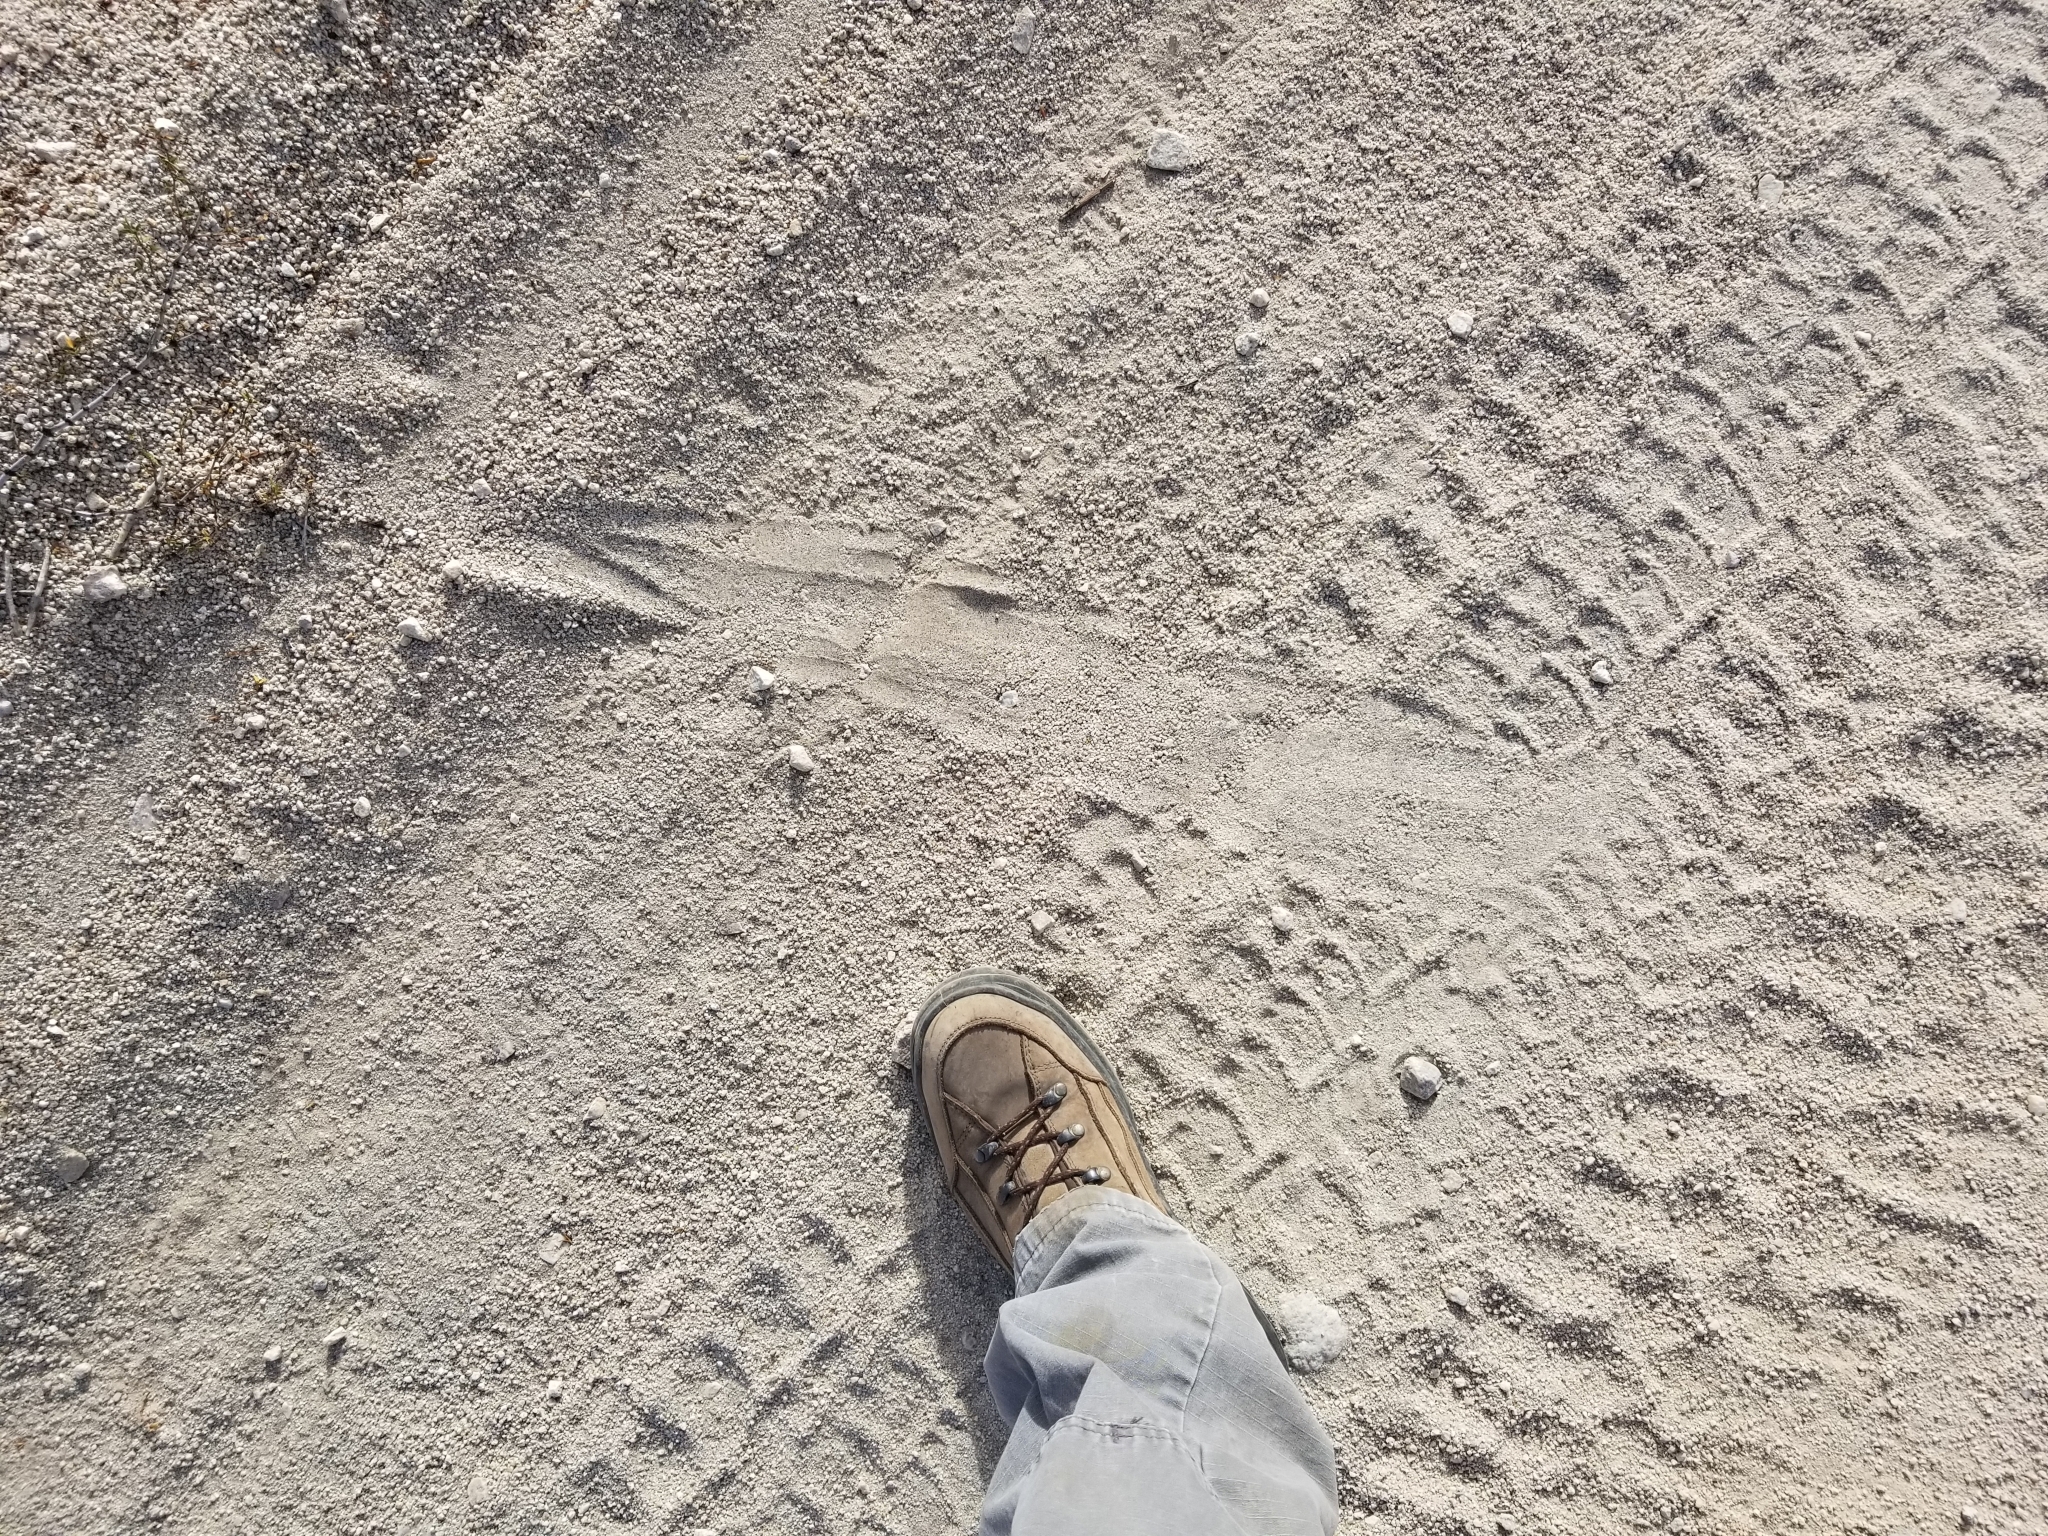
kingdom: Animalia
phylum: Chordata
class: Squamata
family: Viperidae
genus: Crotalus
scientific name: Crotalus
